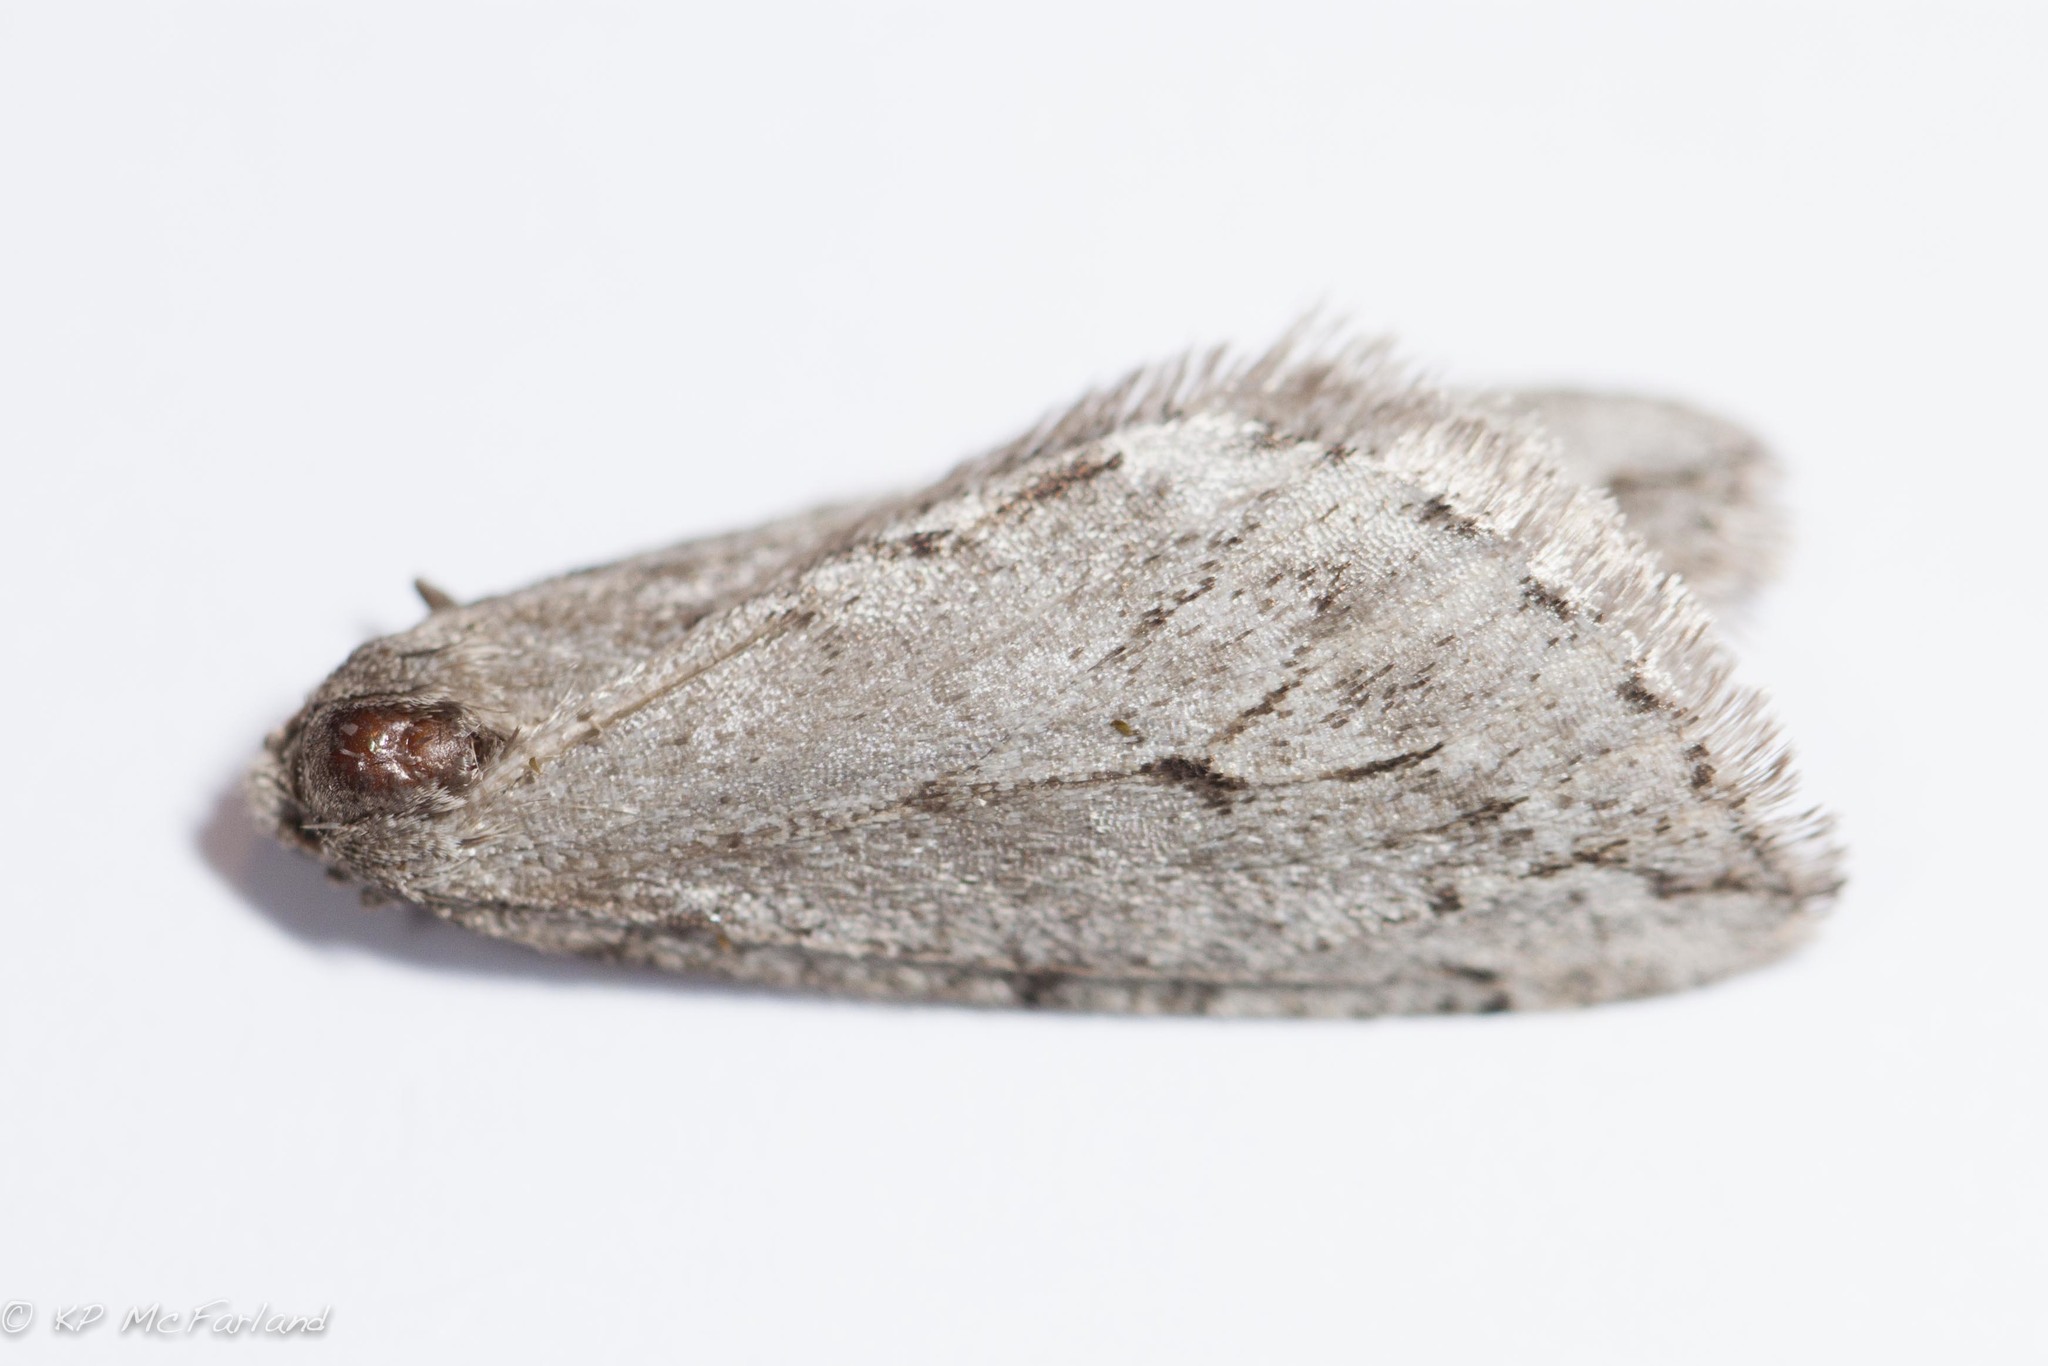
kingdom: Animalia
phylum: Arthropoda
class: Insecta
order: Lepidoptera
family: Geometridae
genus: Paleacrita
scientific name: Paleacrita vernata
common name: Spring cankerworm
